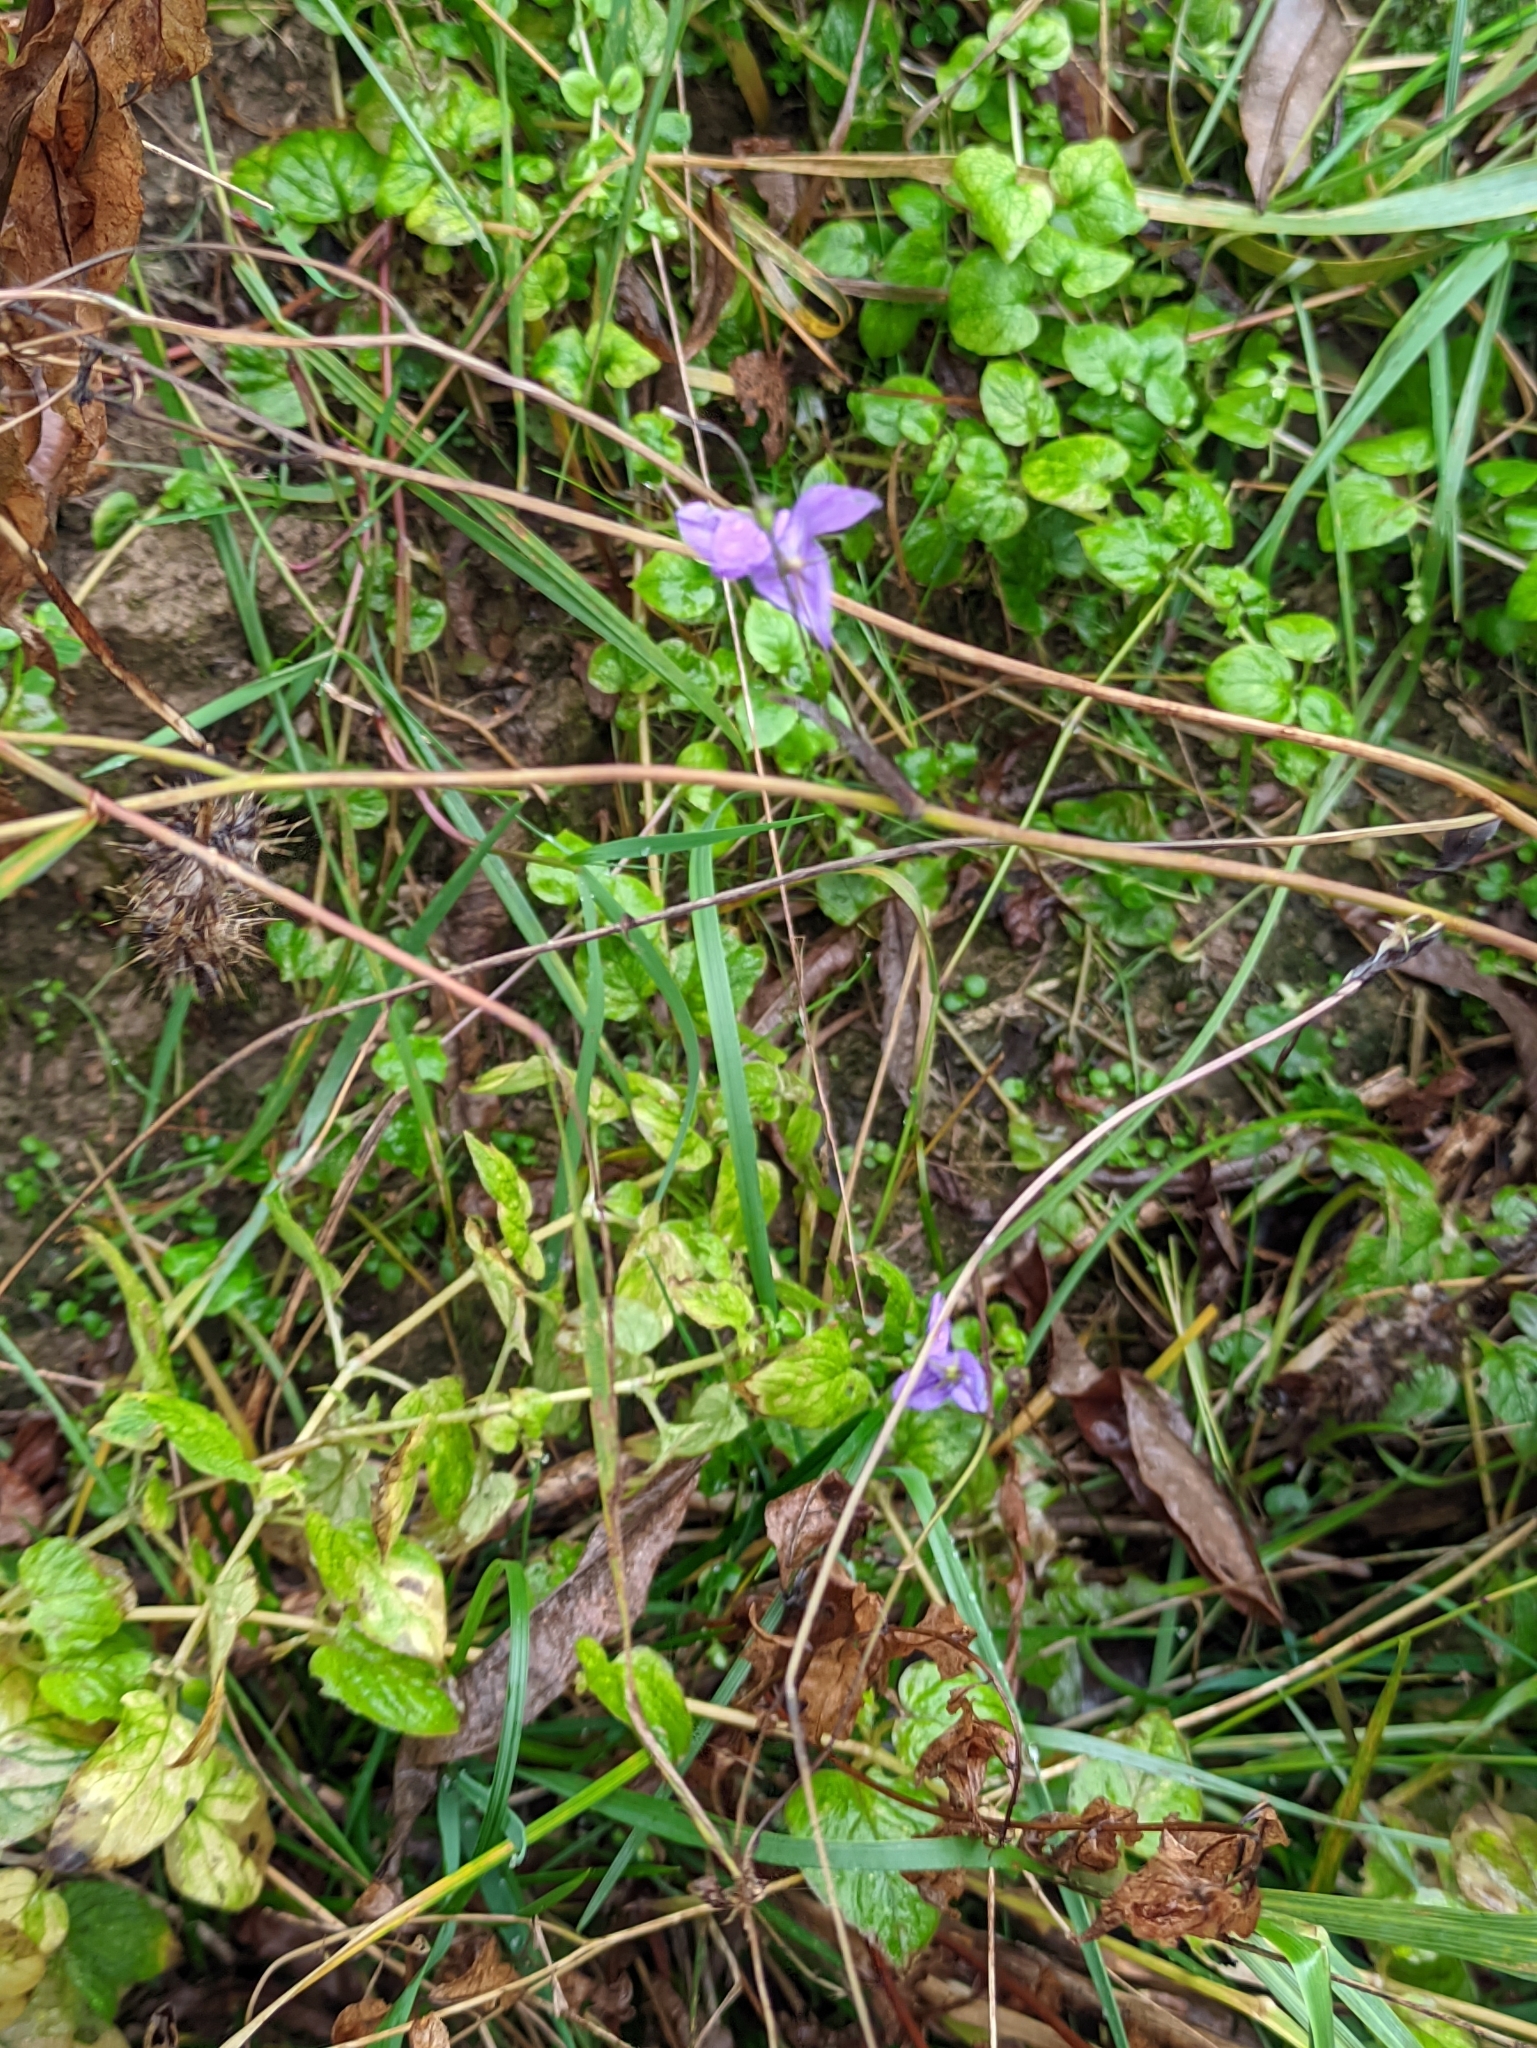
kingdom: Plantae
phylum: Tracheophyta
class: Magnoliopsida
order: Asterales
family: Campanulaceae
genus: Campanula
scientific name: Campanula patula
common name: Spreading bellflower
